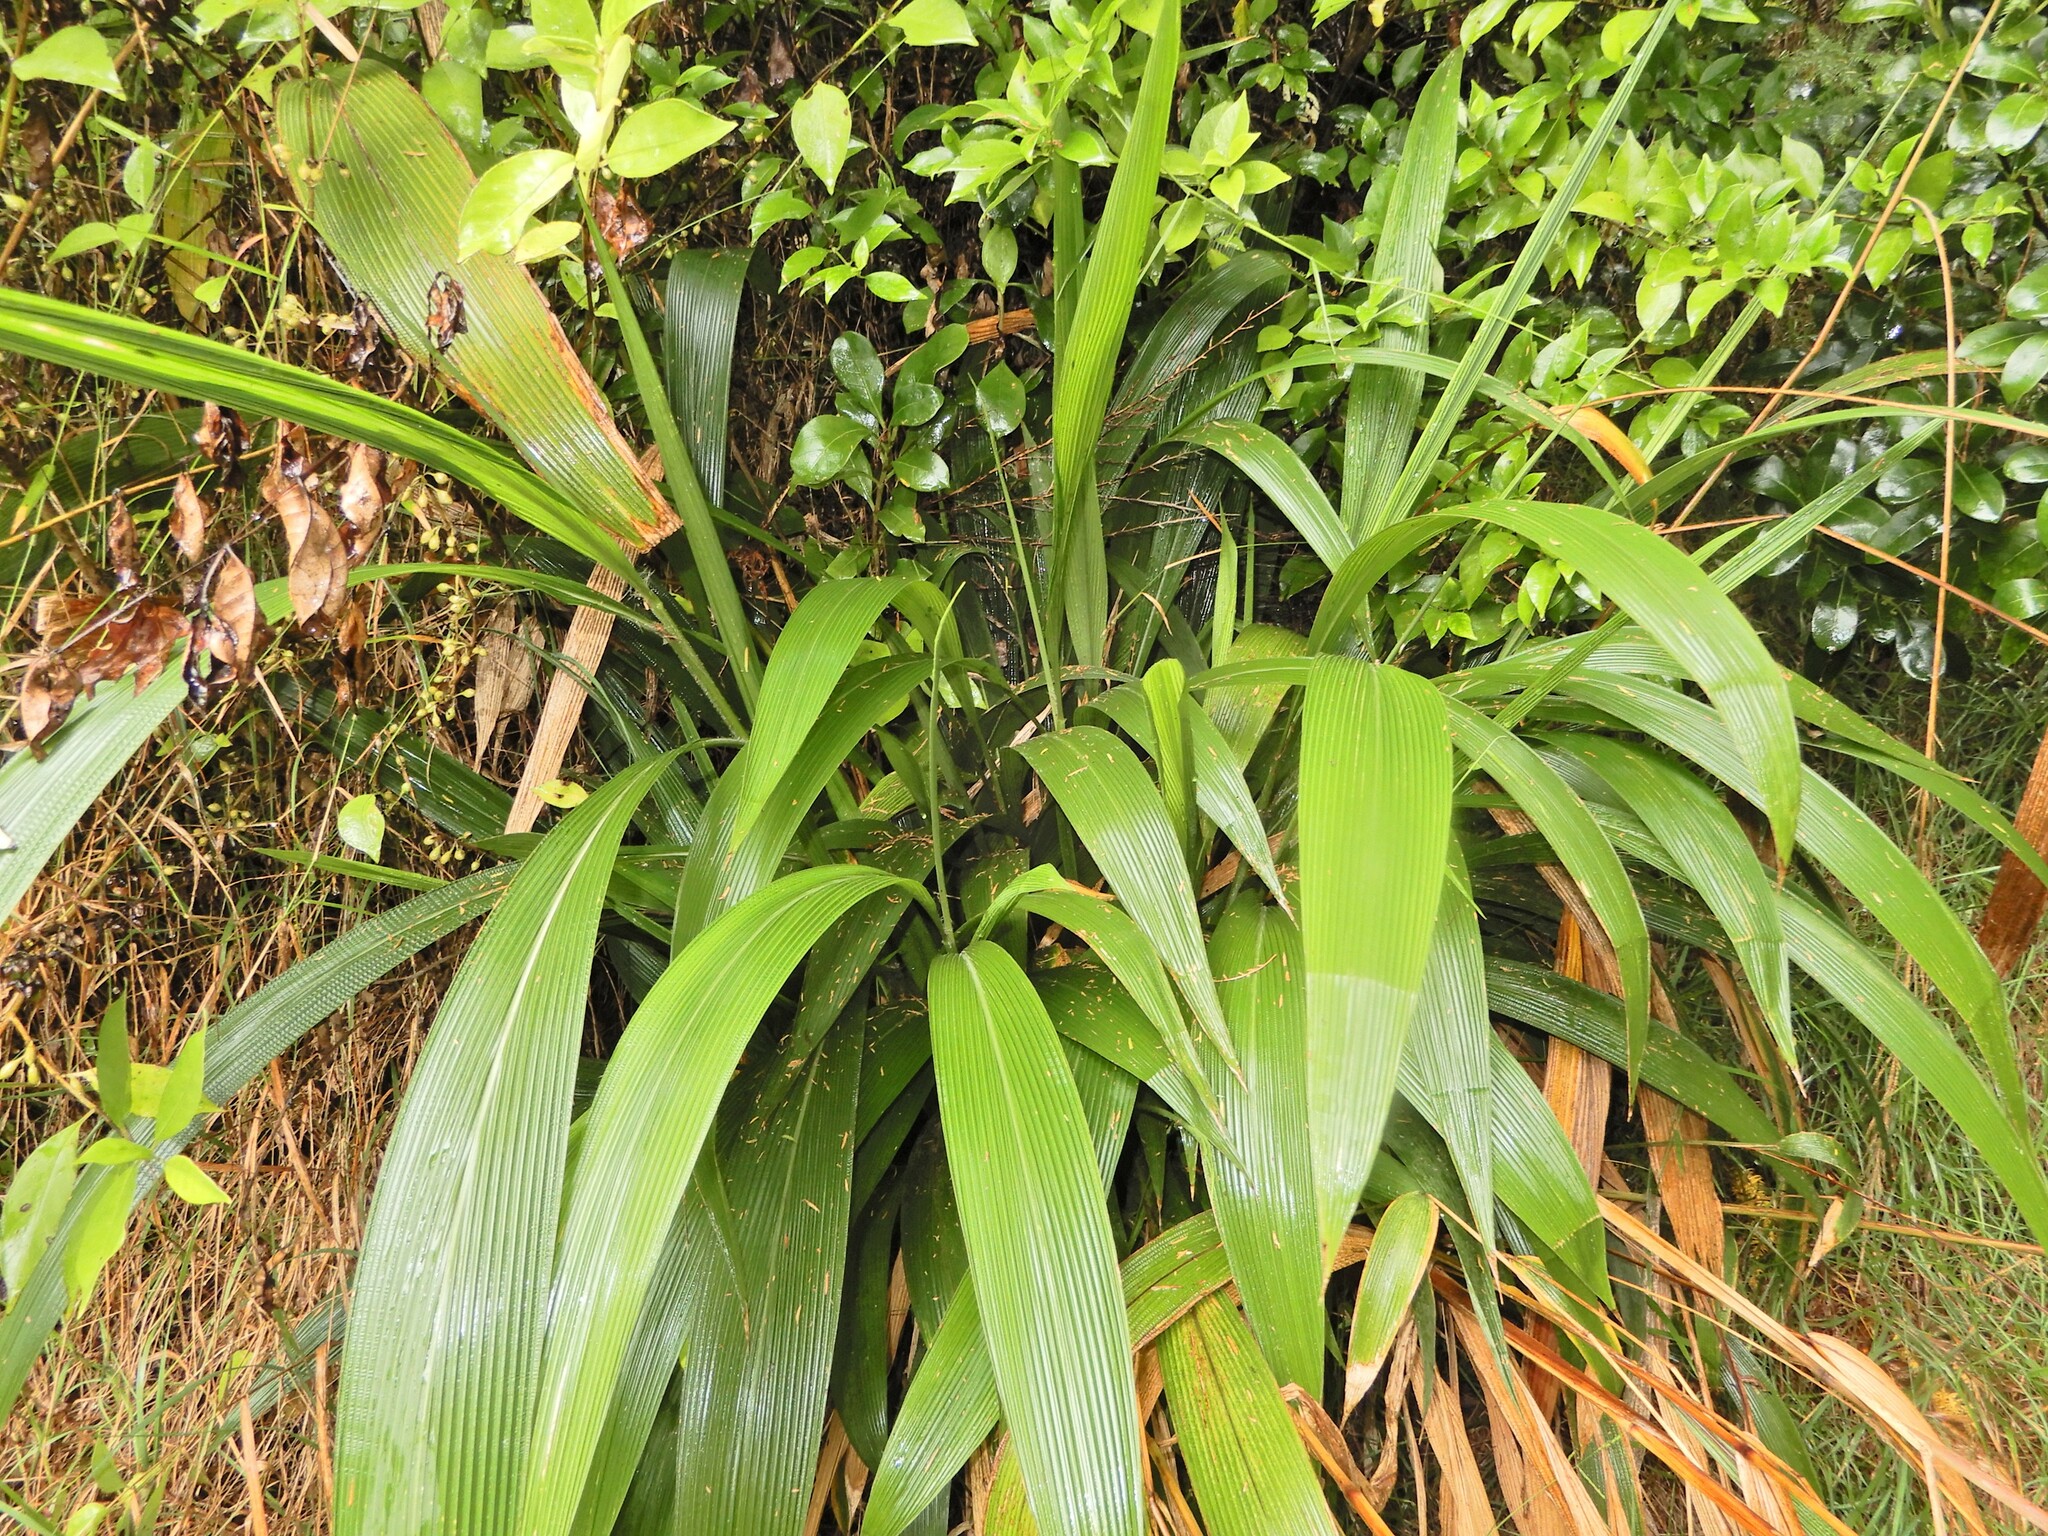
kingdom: Plantae
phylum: Tracheophyta
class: Liliopsida
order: Poales
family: Poaceae
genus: Setaria
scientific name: Setaria palmifolia
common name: Broadleaved bristlegrass
